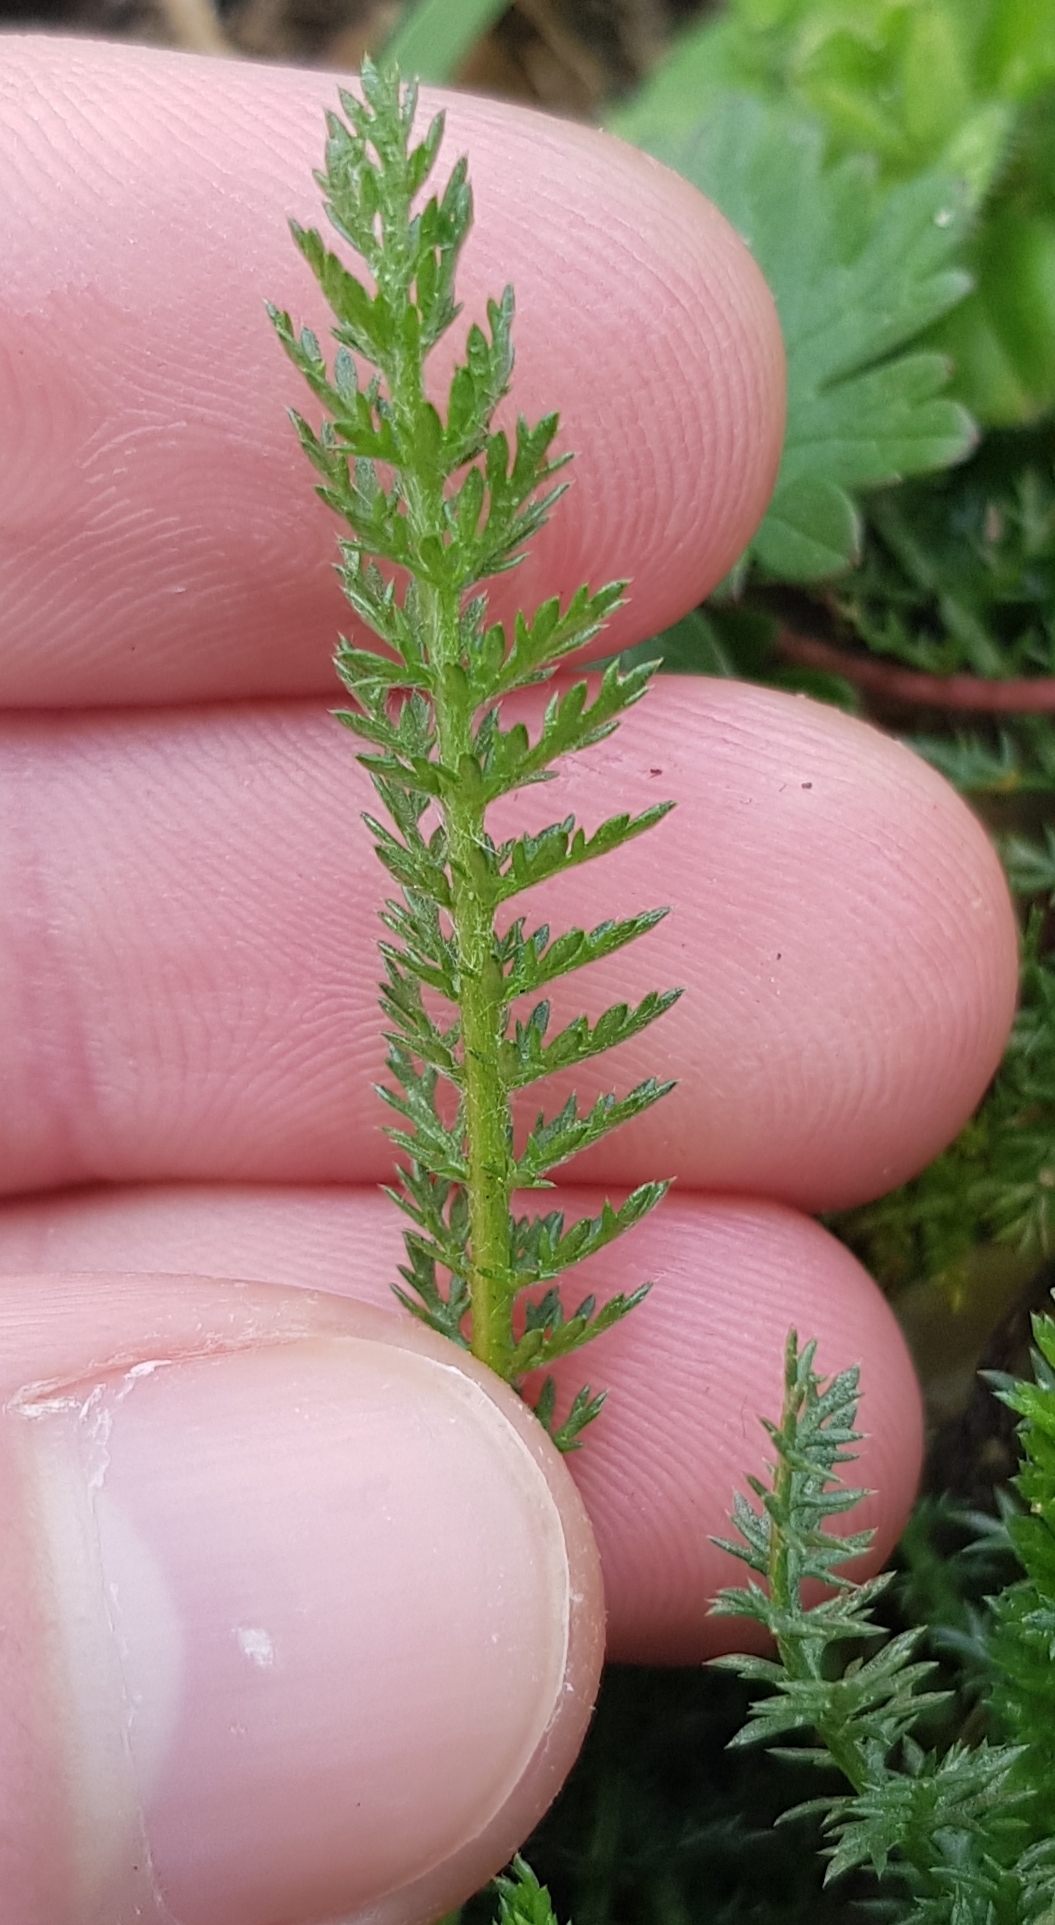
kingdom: Plantae
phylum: Tracheophyta
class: Magnoliopsida
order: Asterales
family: Asteraceae
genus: Achillea
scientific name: Achillea millefolium
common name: Yarrow
